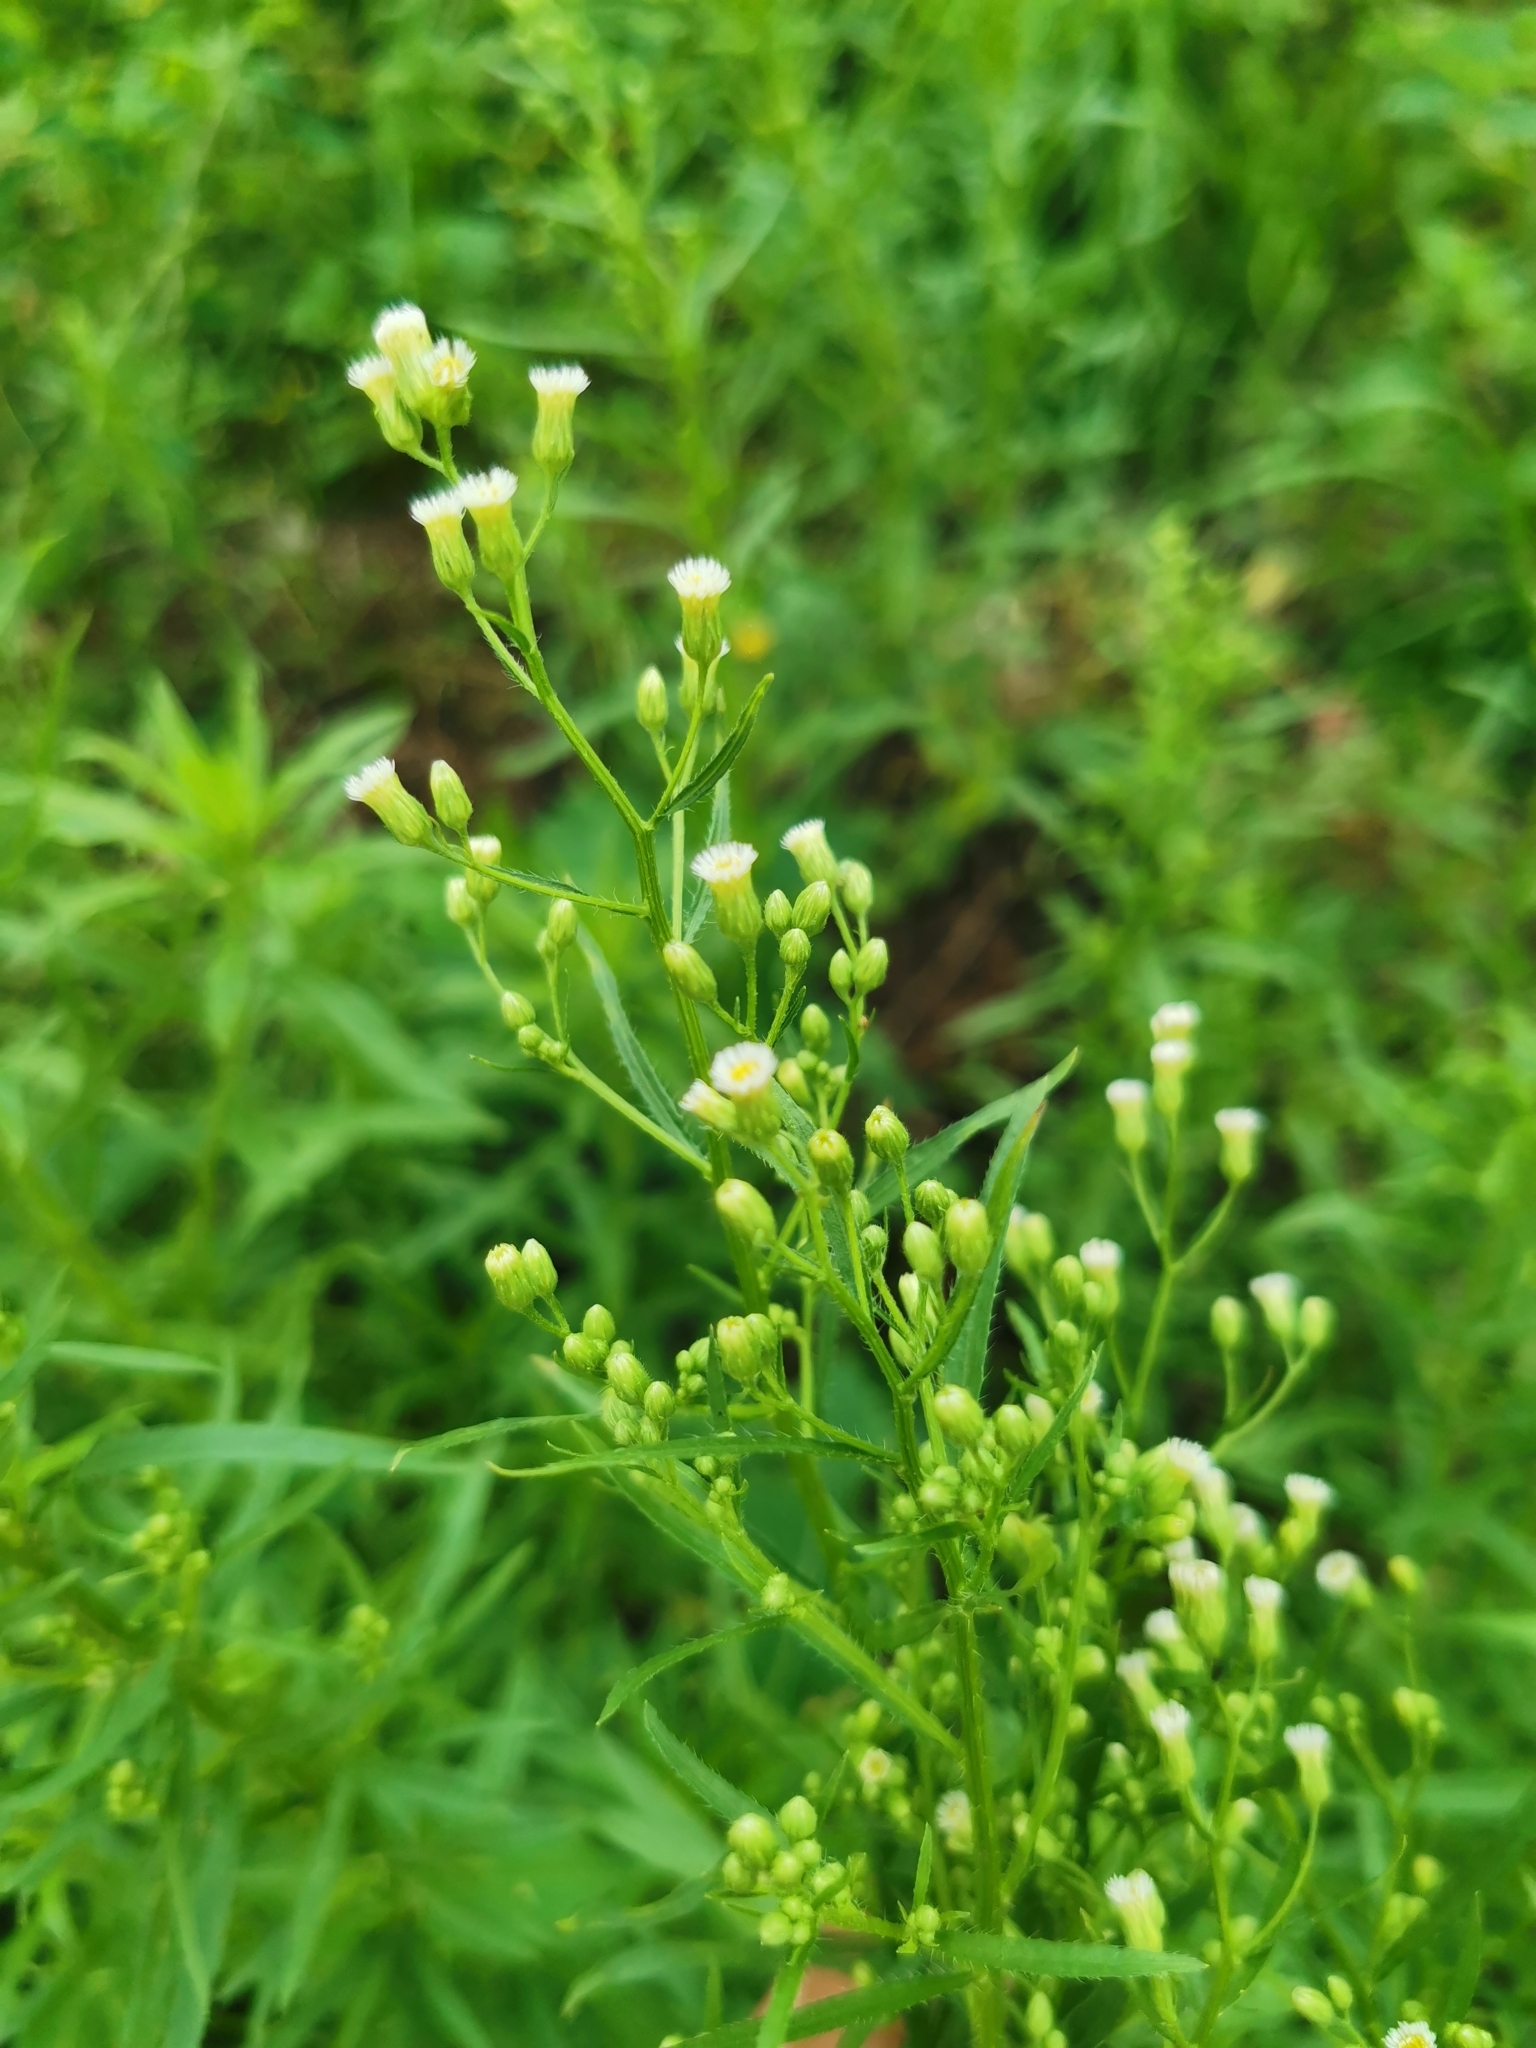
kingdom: Plantae
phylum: Tracheophyta
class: Magnoliopsida
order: Asterales
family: Asteraceae
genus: Erigeron
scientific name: Erigeron canadensis
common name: Canadian fleabane
